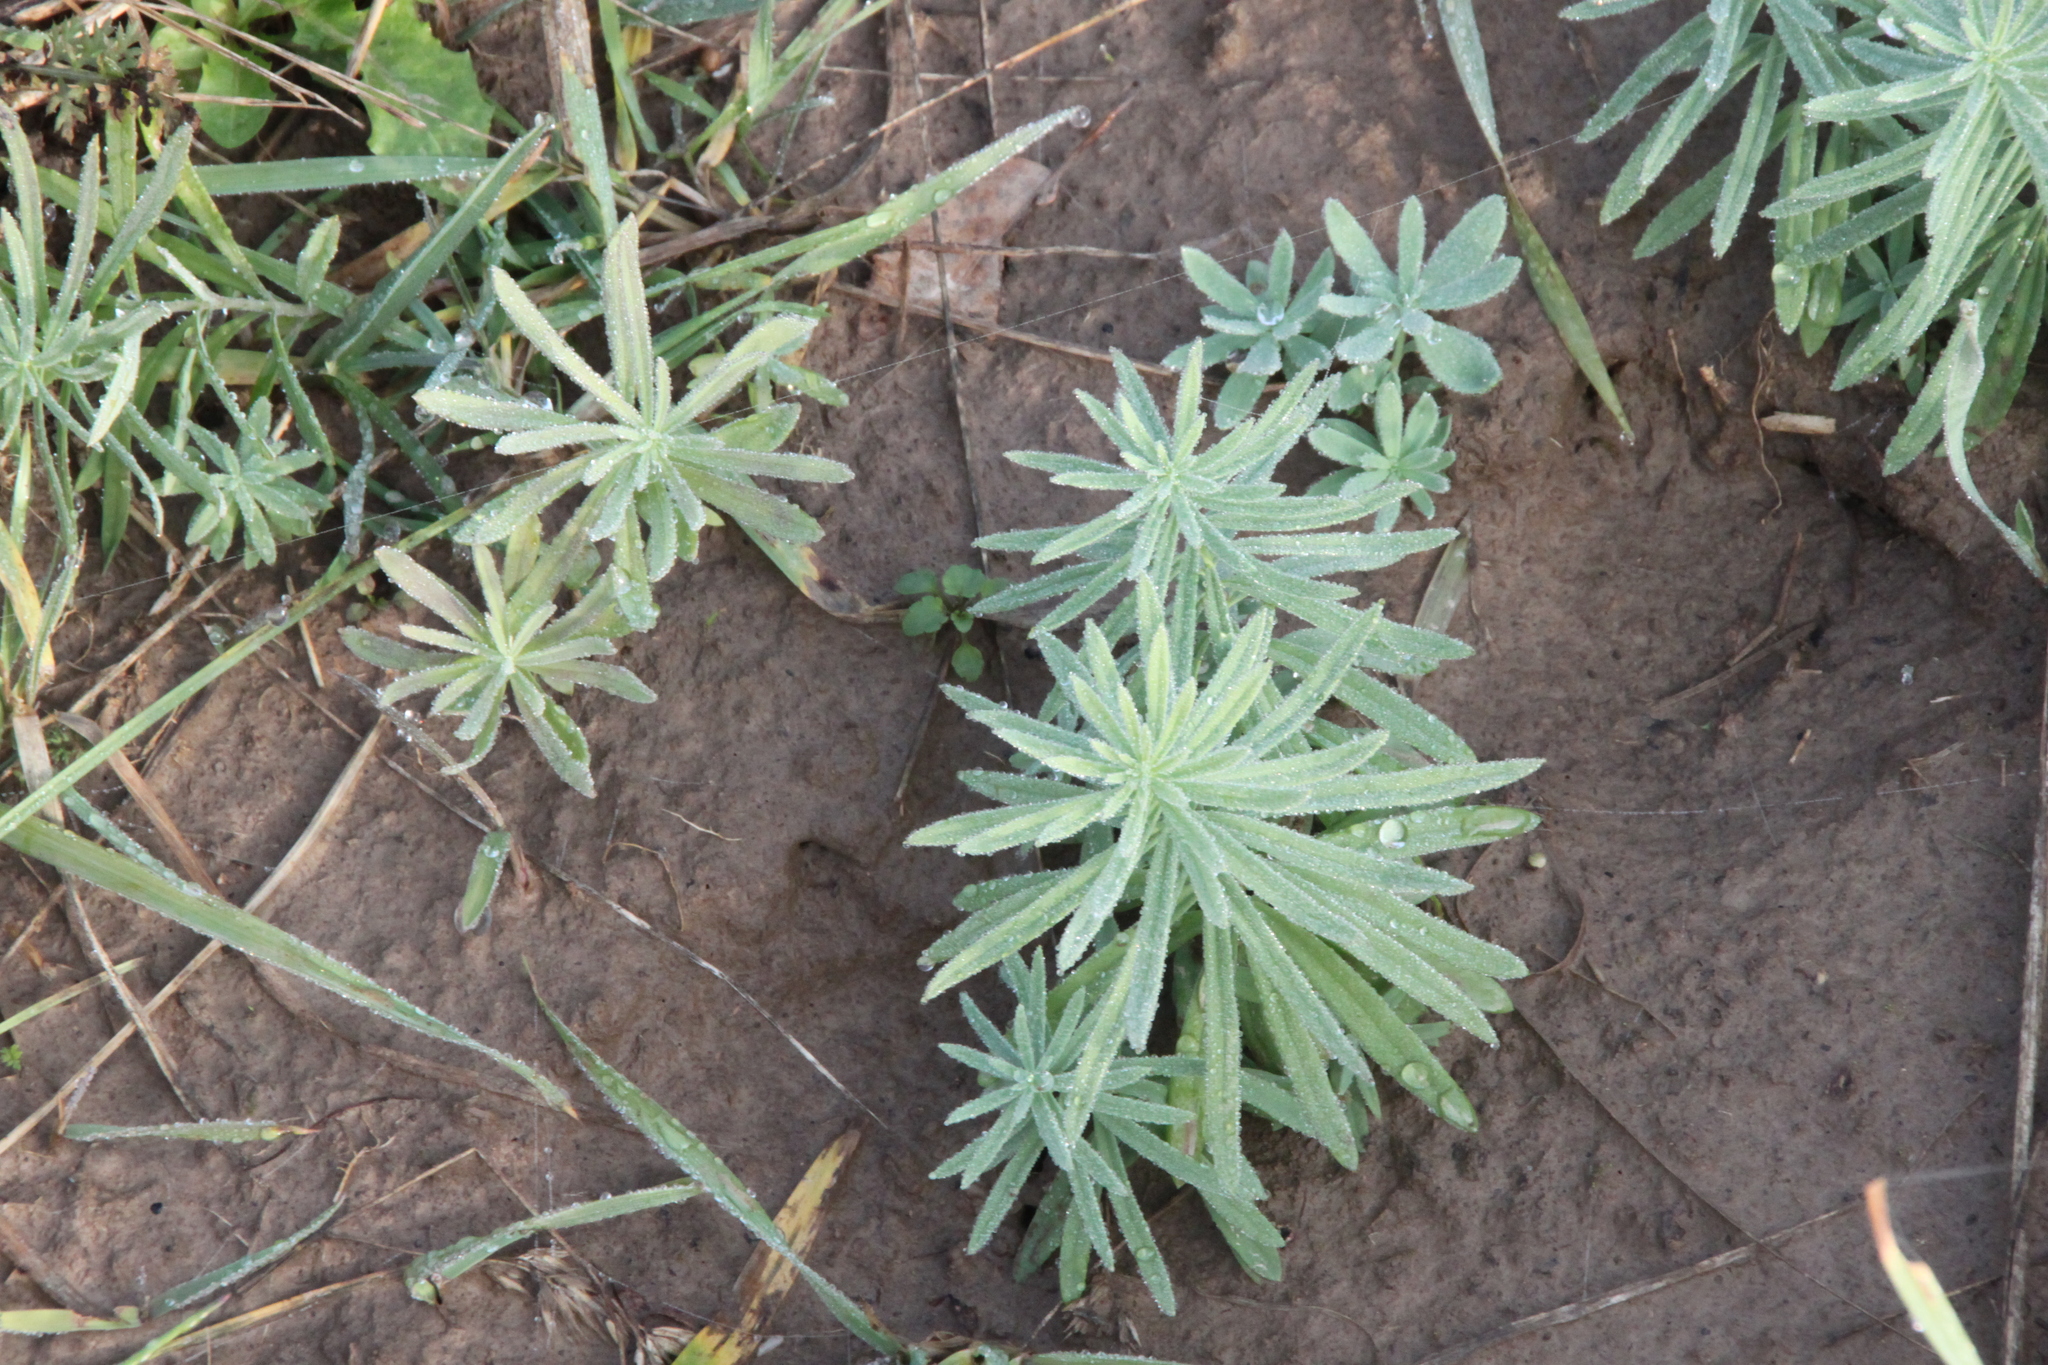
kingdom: Plantae
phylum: Tracheophyta
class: Magnoliopsida
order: Lamiales
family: Plantaginaceae
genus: Linaria
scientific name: Linaria vulgaris
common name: Butter and eggs
